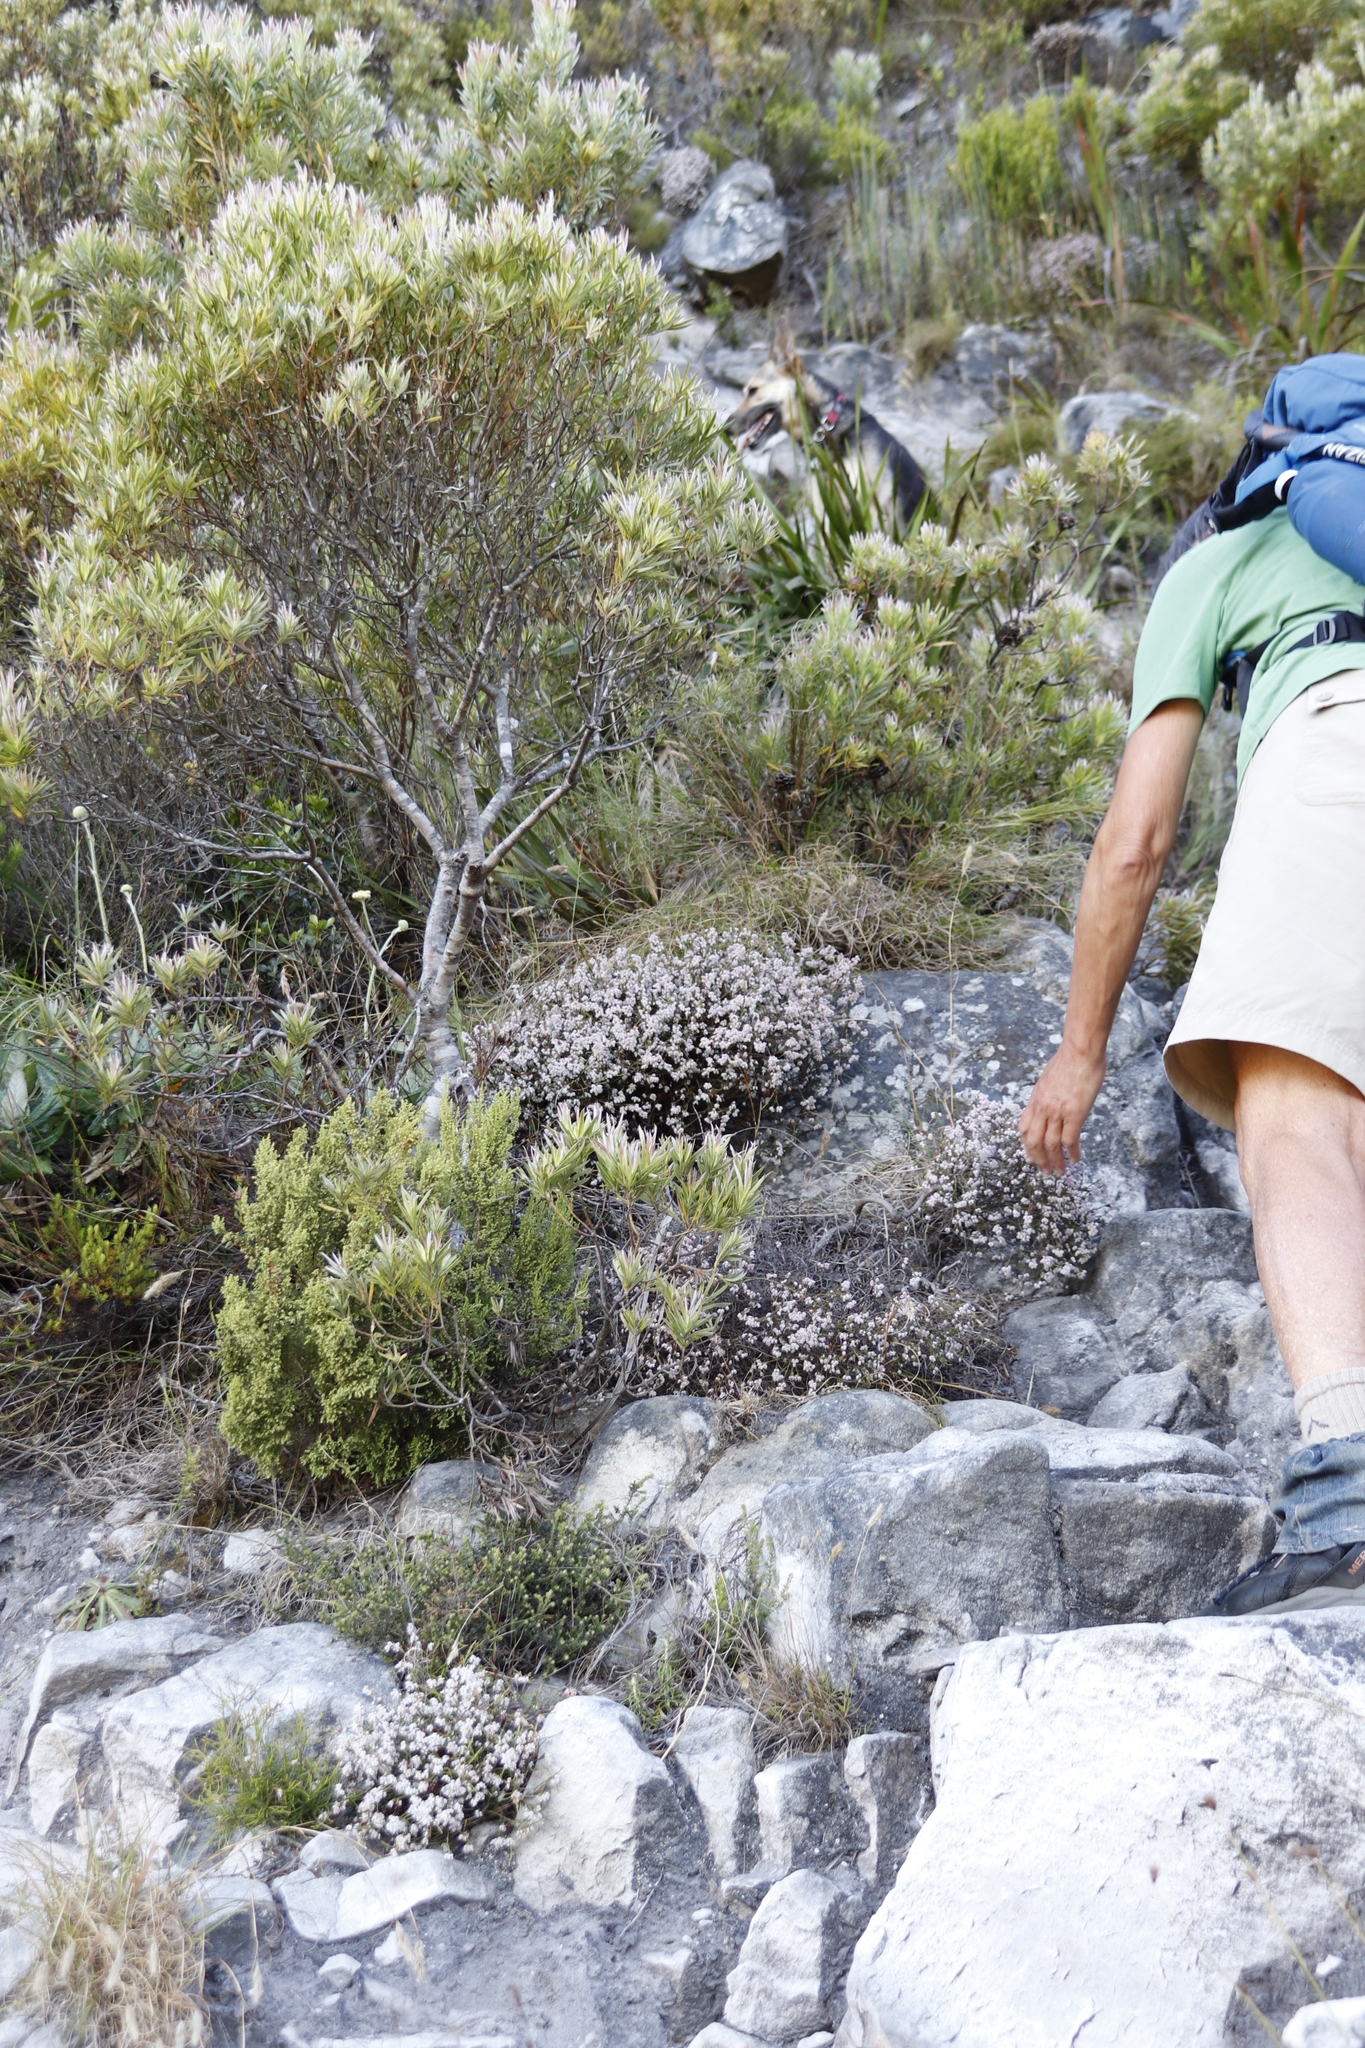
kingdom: Plantae
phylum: Tracheophyta
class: Magnoliopsida
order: Proteales
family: Proteaceae
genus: Leucadendron
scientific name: Leucadendron xanthoconus
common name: Sickle-leaf conebush
